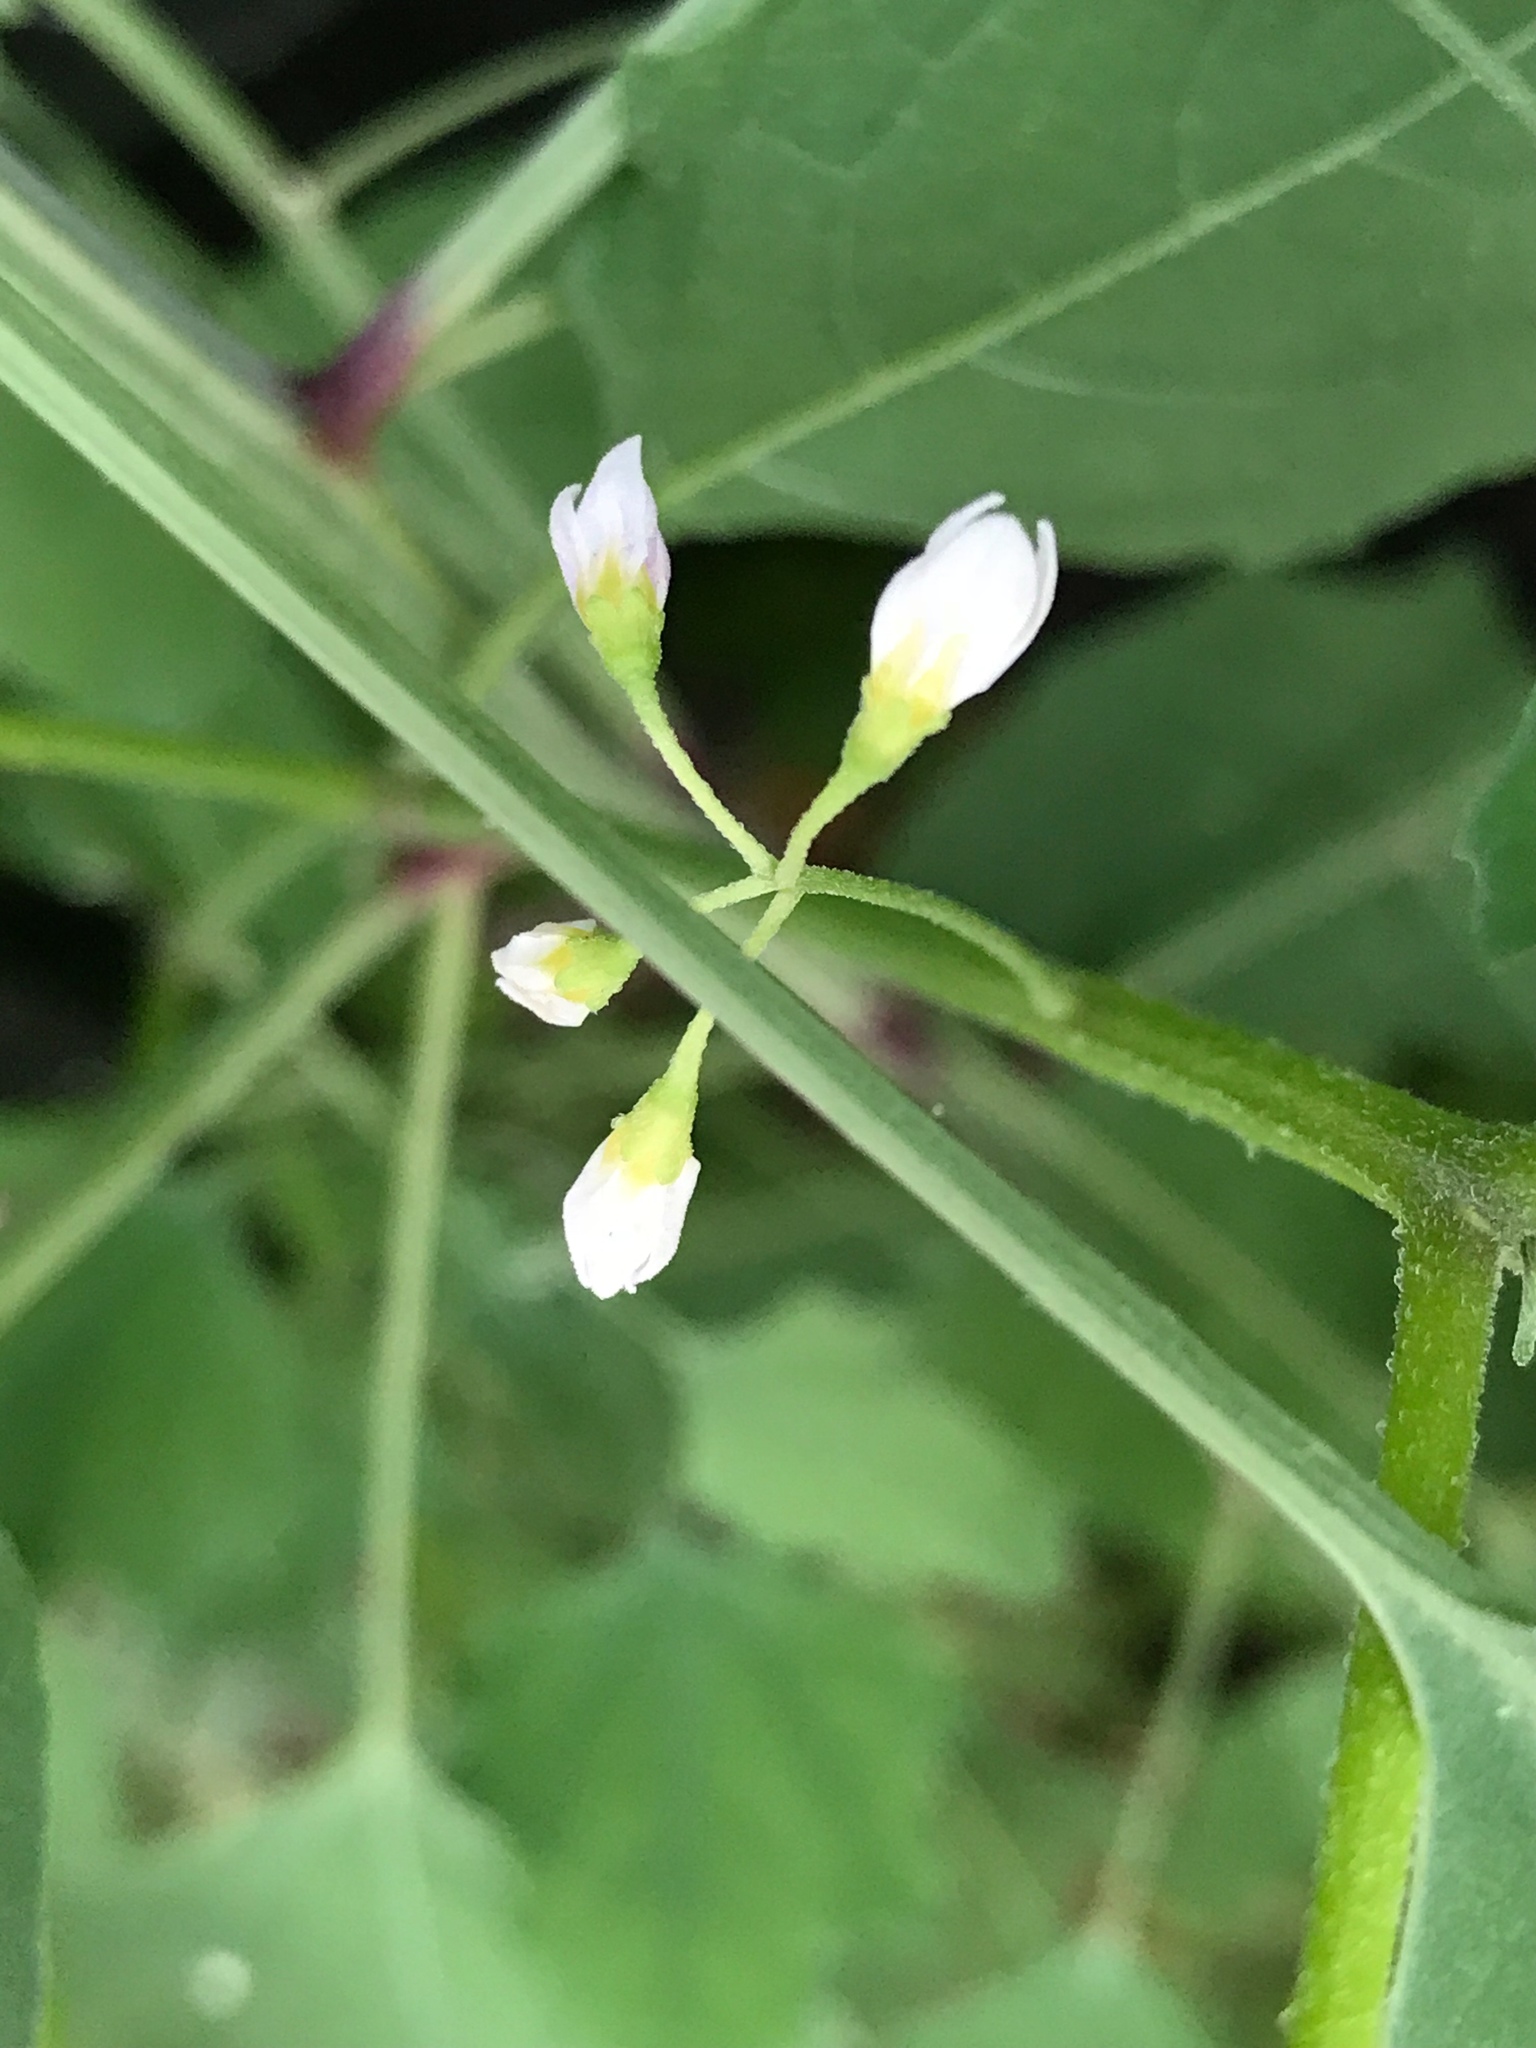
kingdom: Plantae
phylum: Tracheophyta
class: Magnoliopsida
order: Caryophyllales
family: Amaranthaceae
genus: Chenopodium
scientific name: Chenopodium album
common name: Fat-hen
